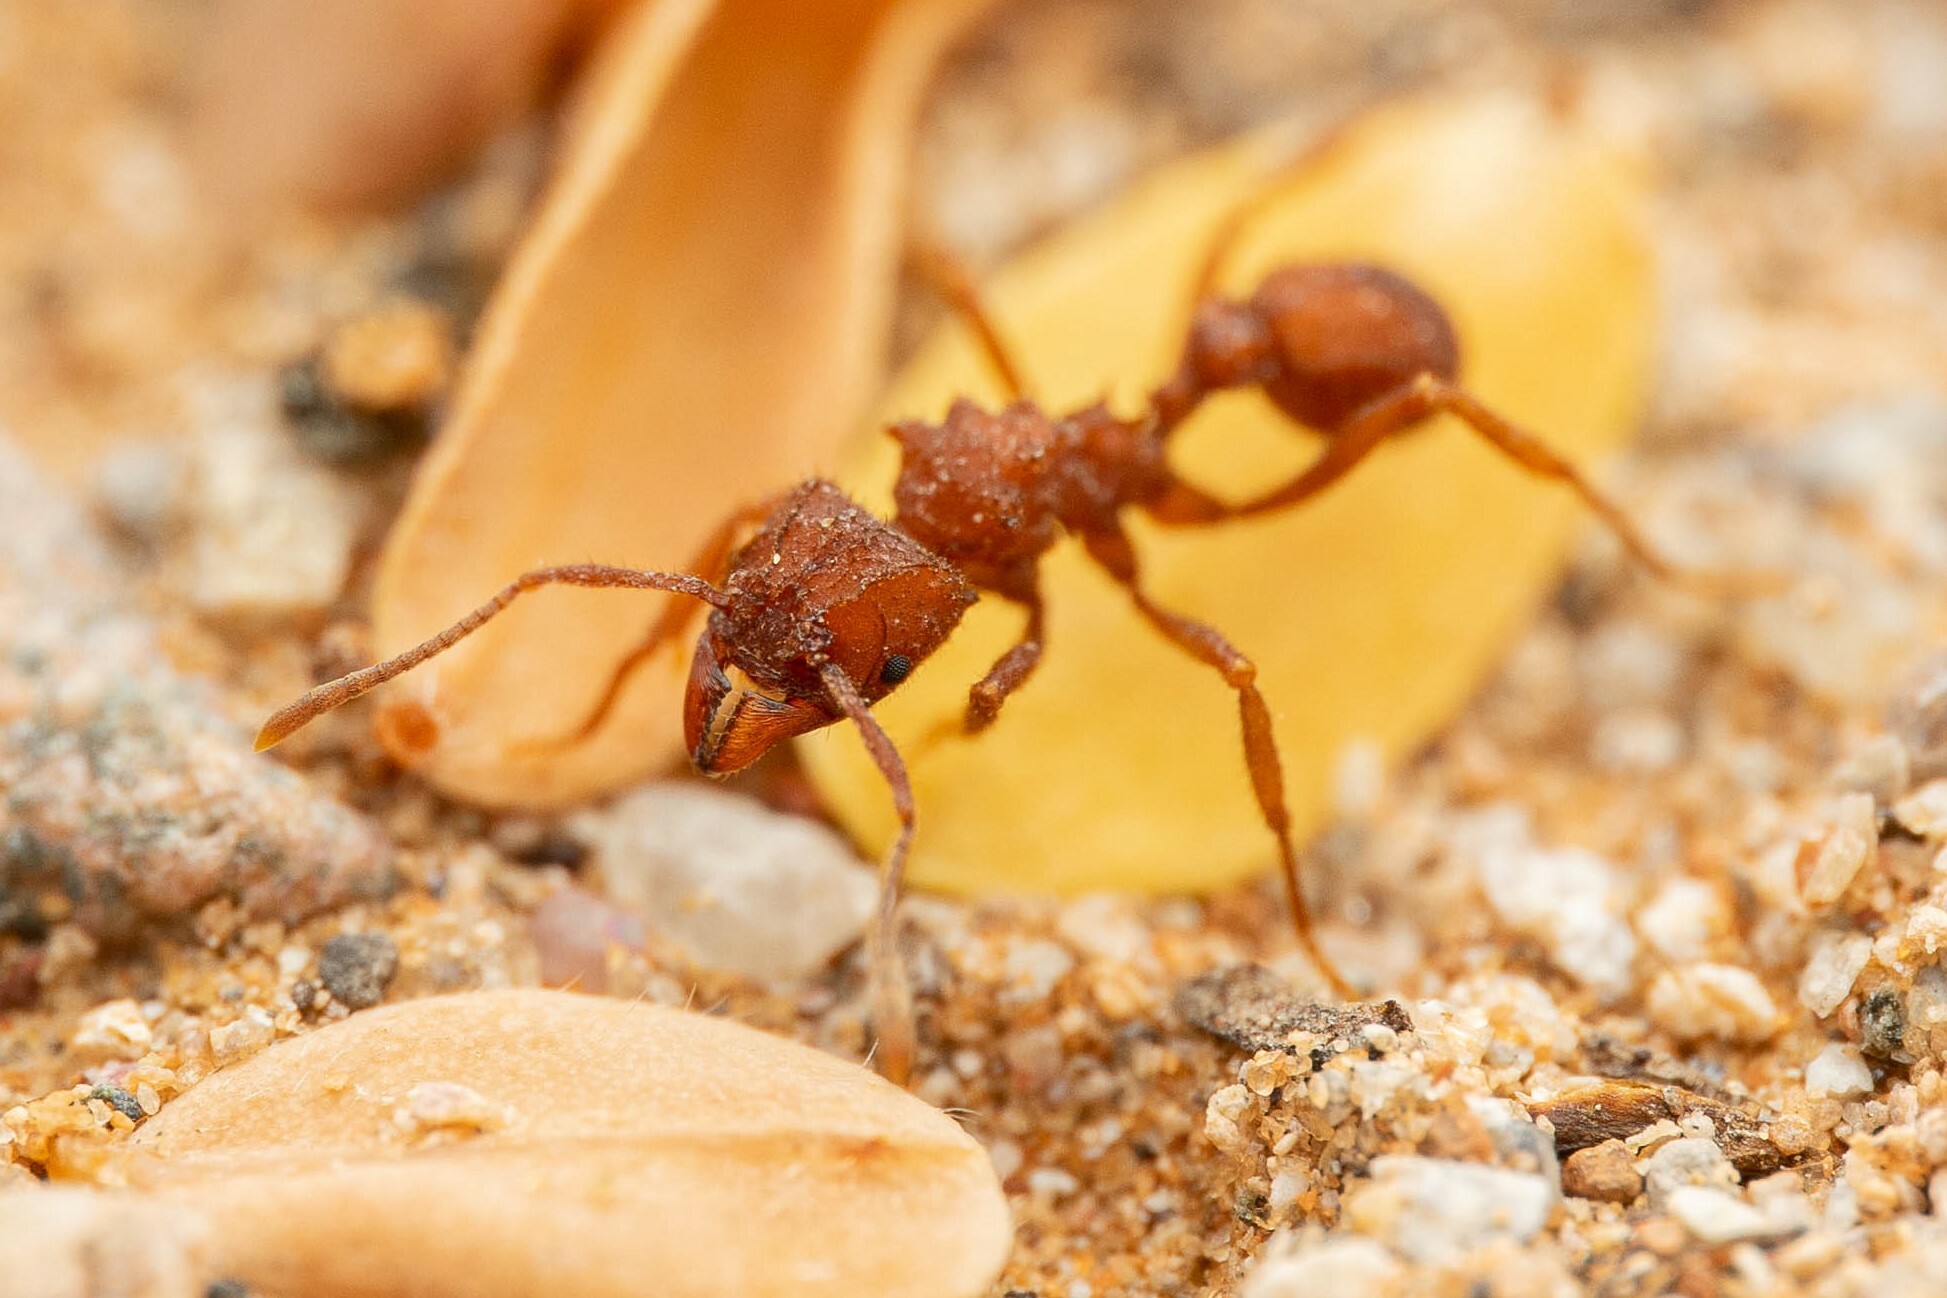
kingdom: Animalia
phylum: Arthropoda
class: Insecta
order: Hymenoptera
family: Formicidae
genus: Trachymyrmex
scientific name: Trachymyrmex desertorum
